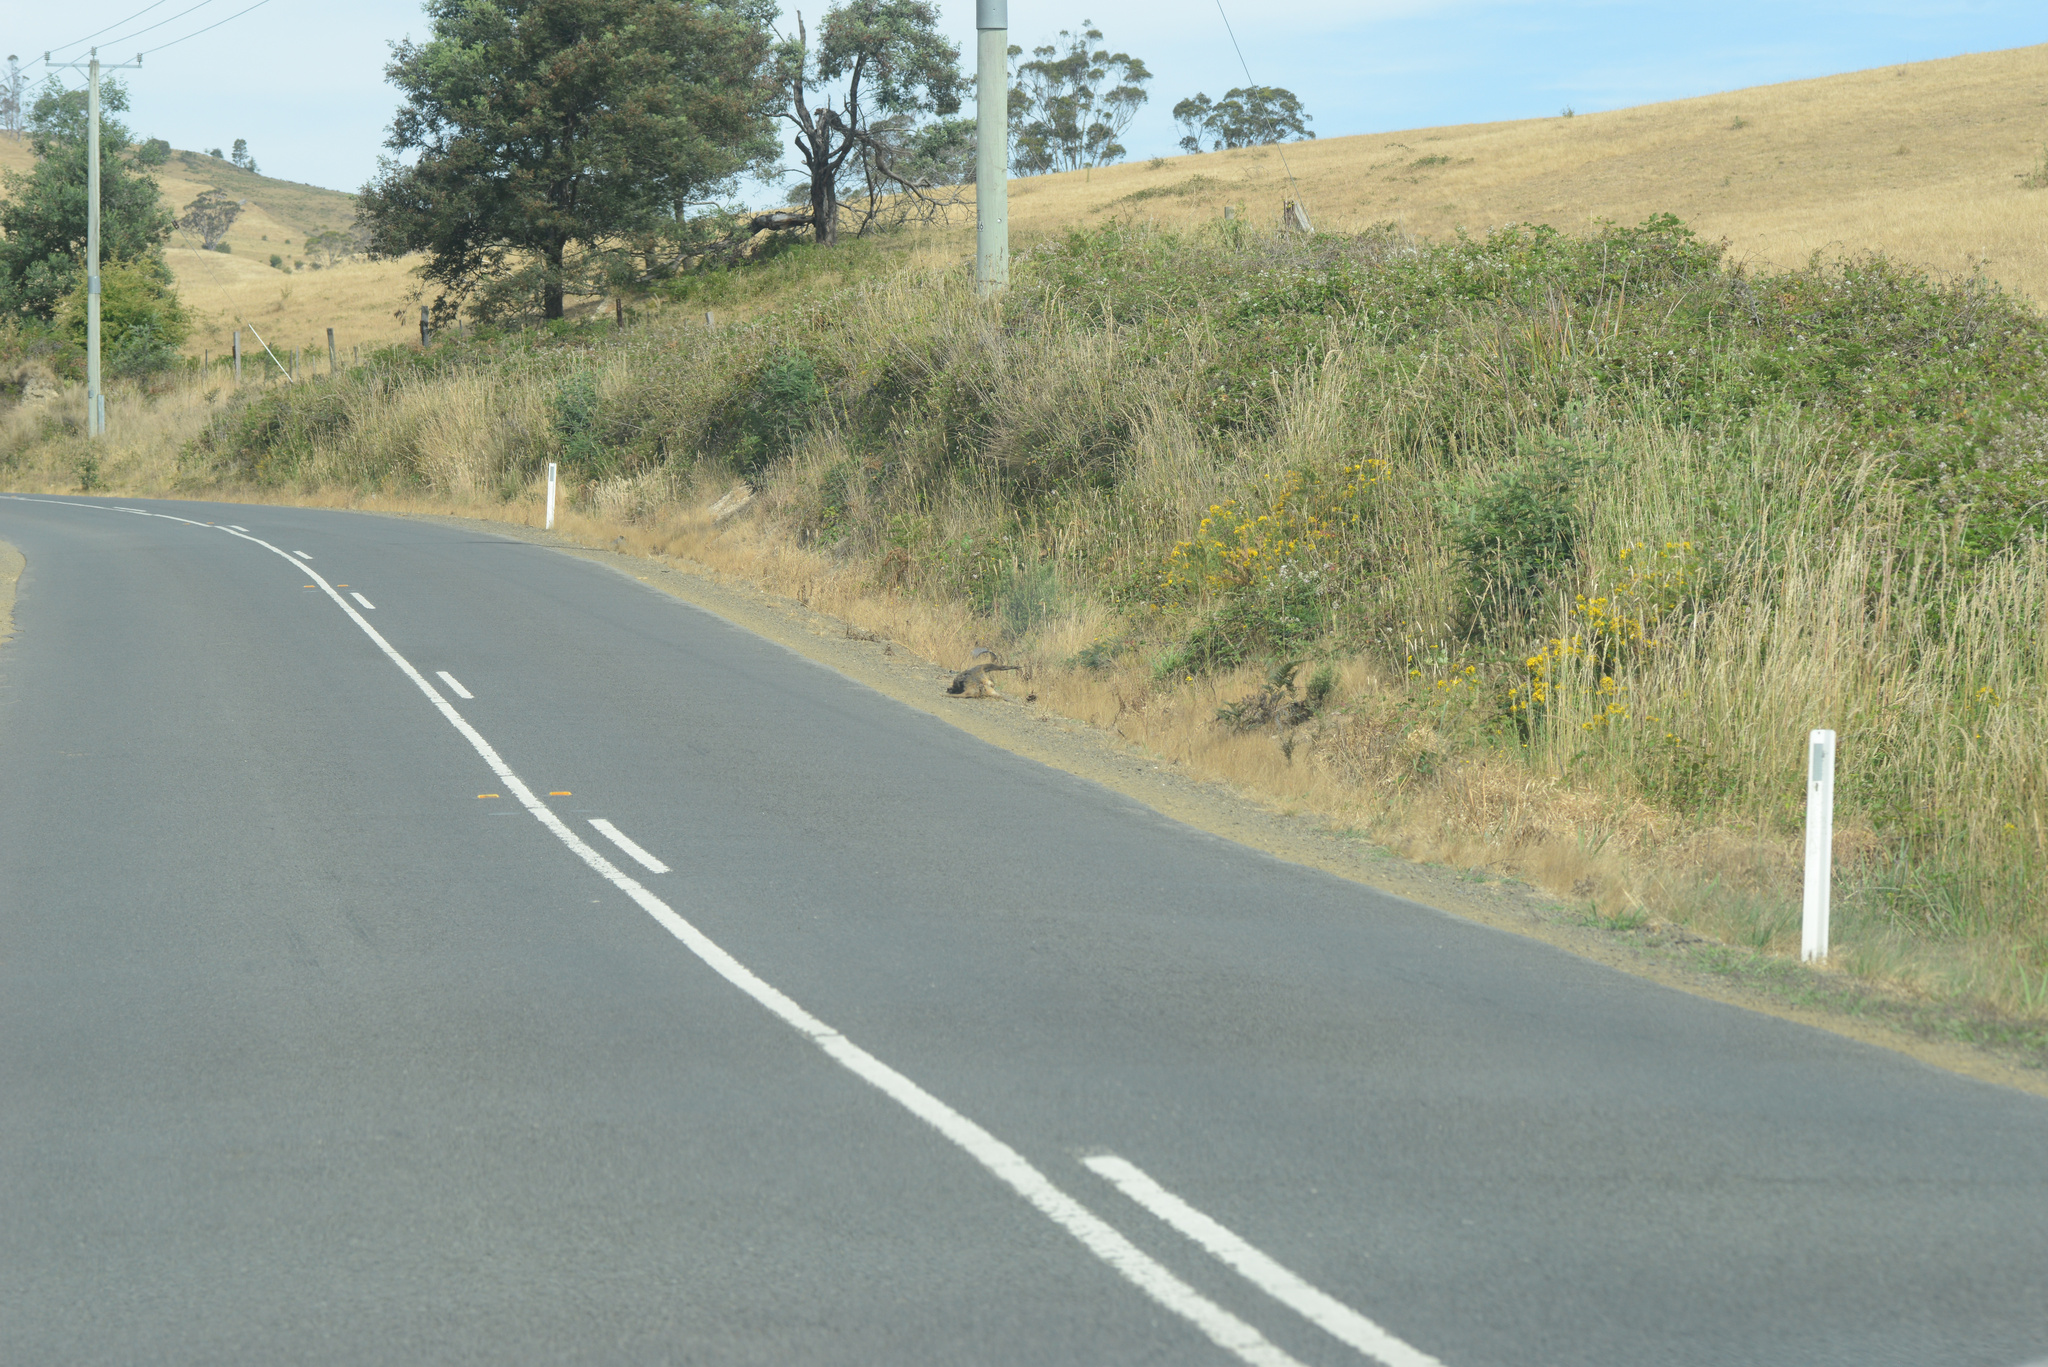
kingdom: Animalia
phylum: Chordata
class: Mammalia
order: Diprotodontia
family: Macropodidae
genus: Notamacropus
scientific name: Notamacropus rufogriseus
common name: Red-necked wallaby
